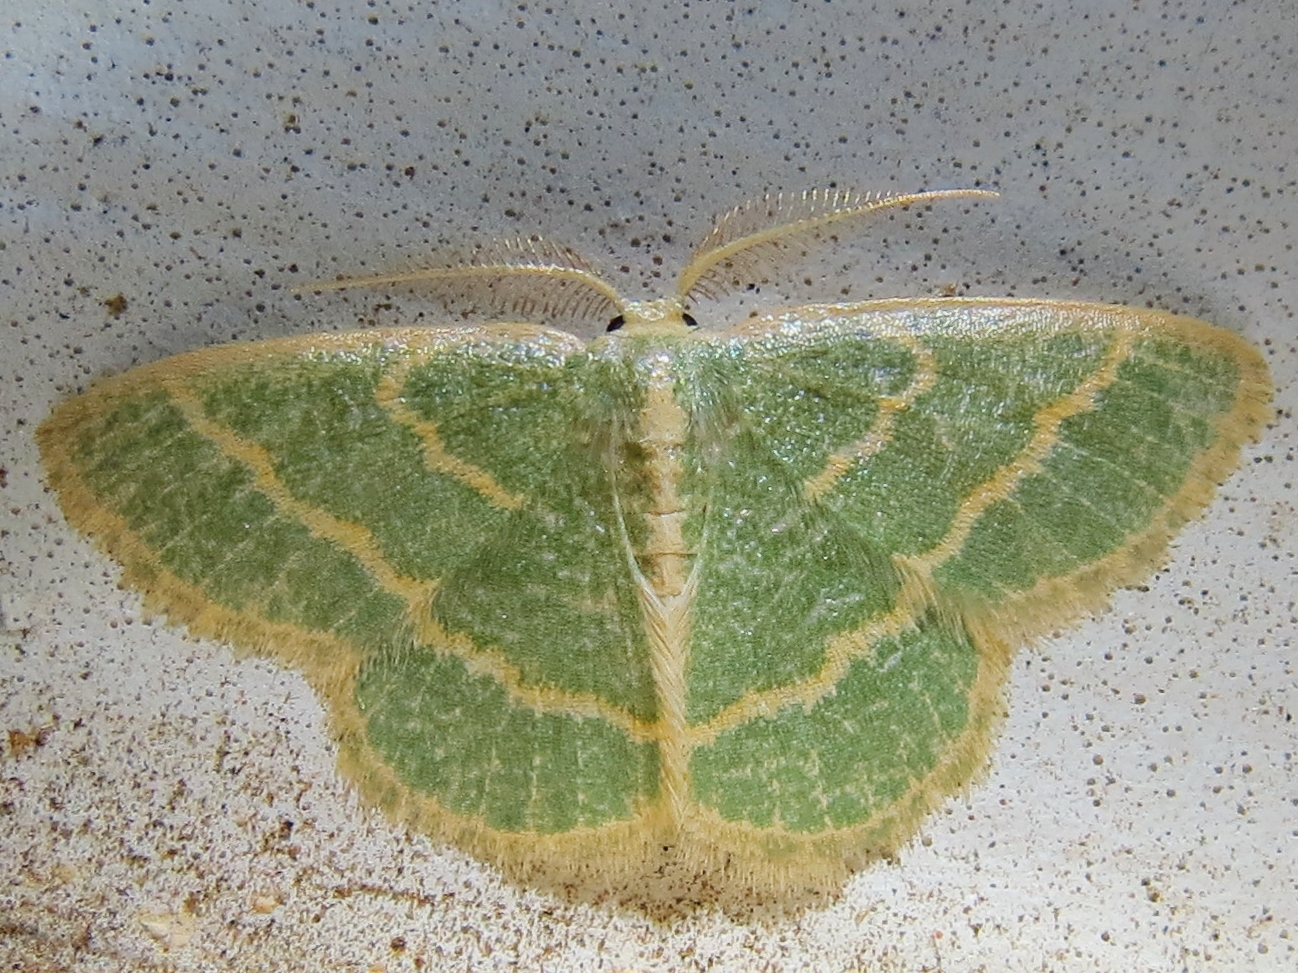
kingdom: Animalia
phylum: Arthropoda
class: Insecta
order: Lepidoptera
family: Geometridae
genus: Chlorochlamys
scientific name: Chlorochlamys chloroleucaria
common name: Blackberry looper
